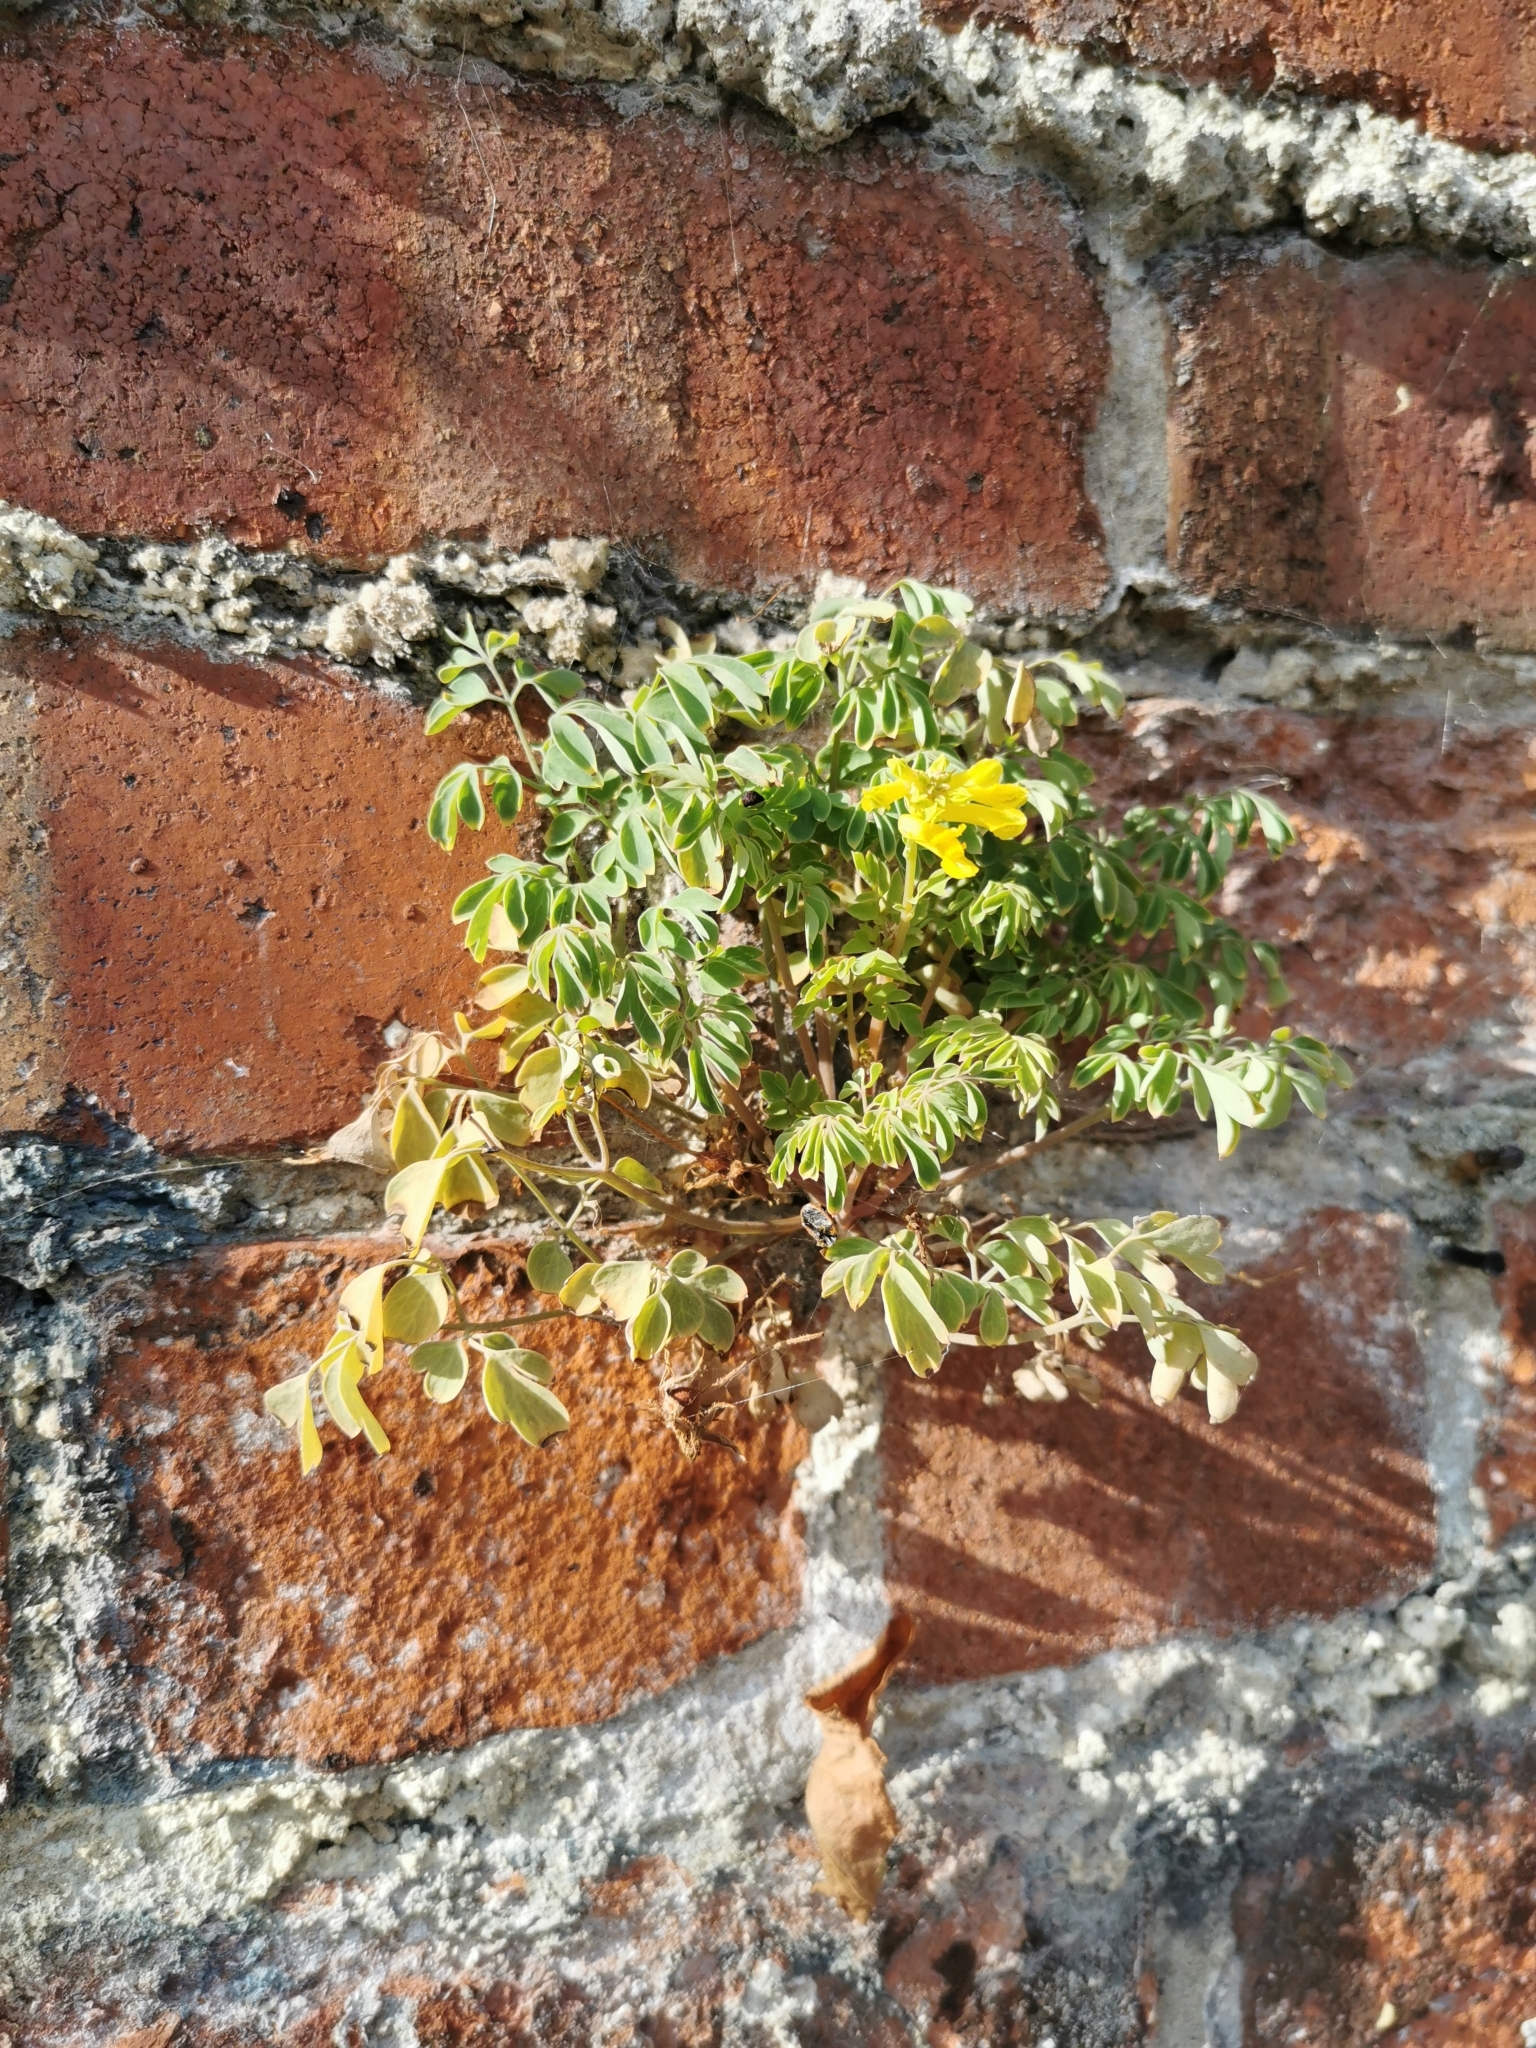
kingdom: Plantae
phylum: Tracheophyta
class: Magnoliopsida
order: Ranunculales
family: Papaveraceae
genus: Pseudofumaria
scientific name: Pseudofumaria lutea
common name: Yellow corydalis
